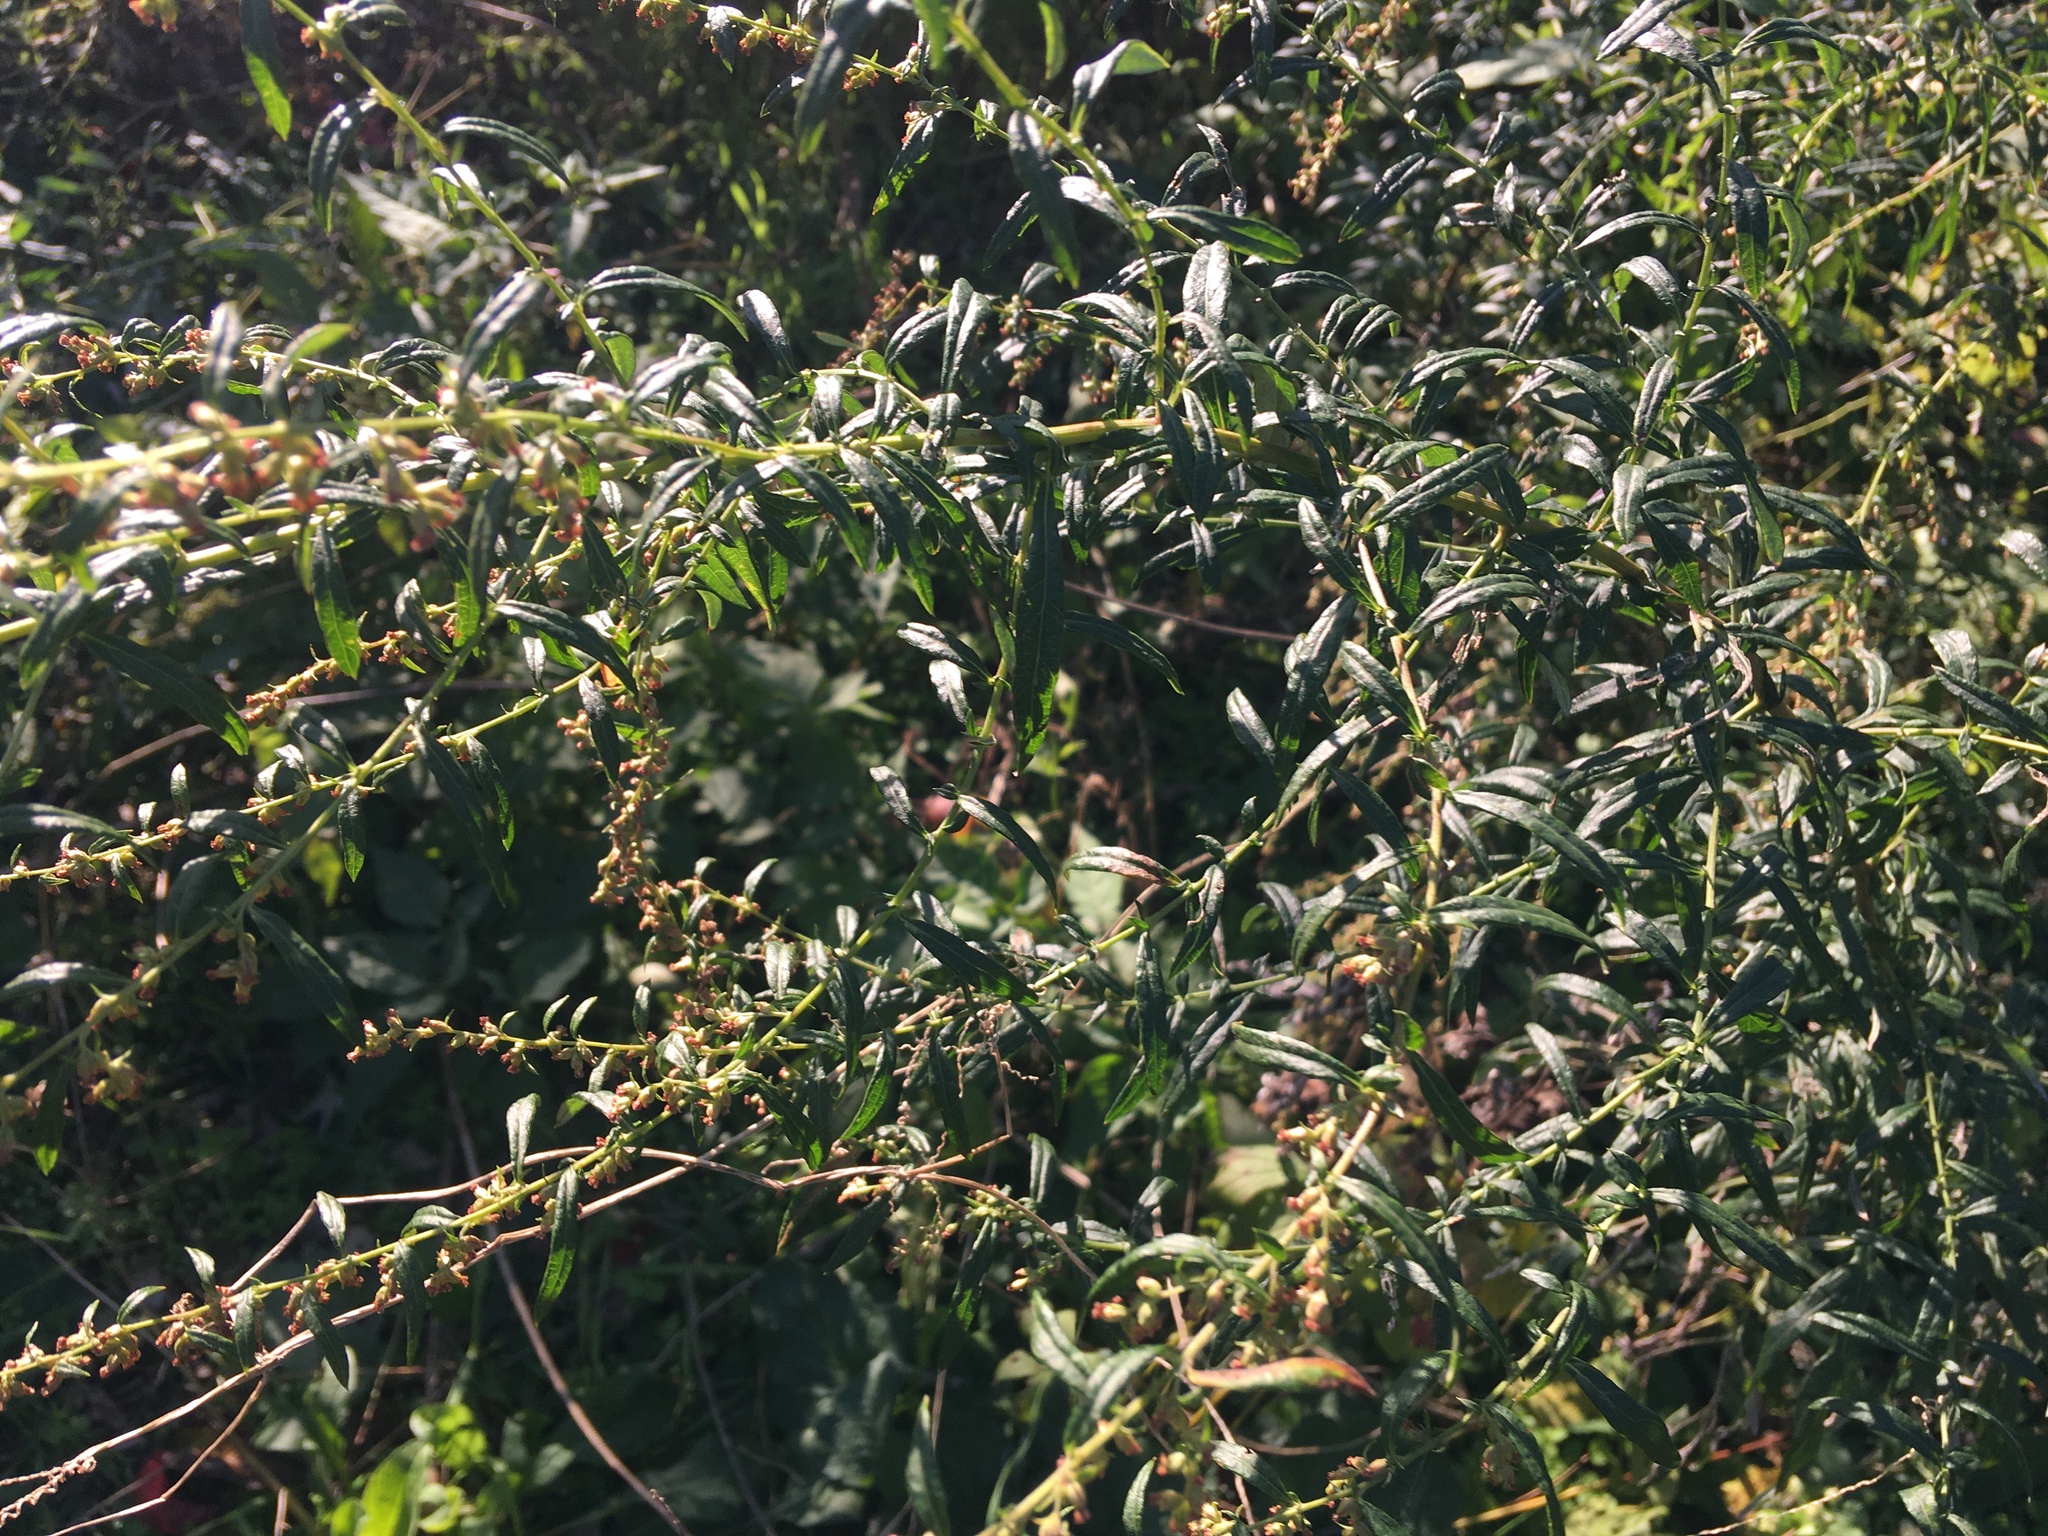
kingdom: Plantae
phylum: Tracheophyta
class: Magnoliopsida
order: Asterales
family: Asteraceae
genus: Artemisia
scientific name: Artemisia vulgaris
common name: Mugwort
